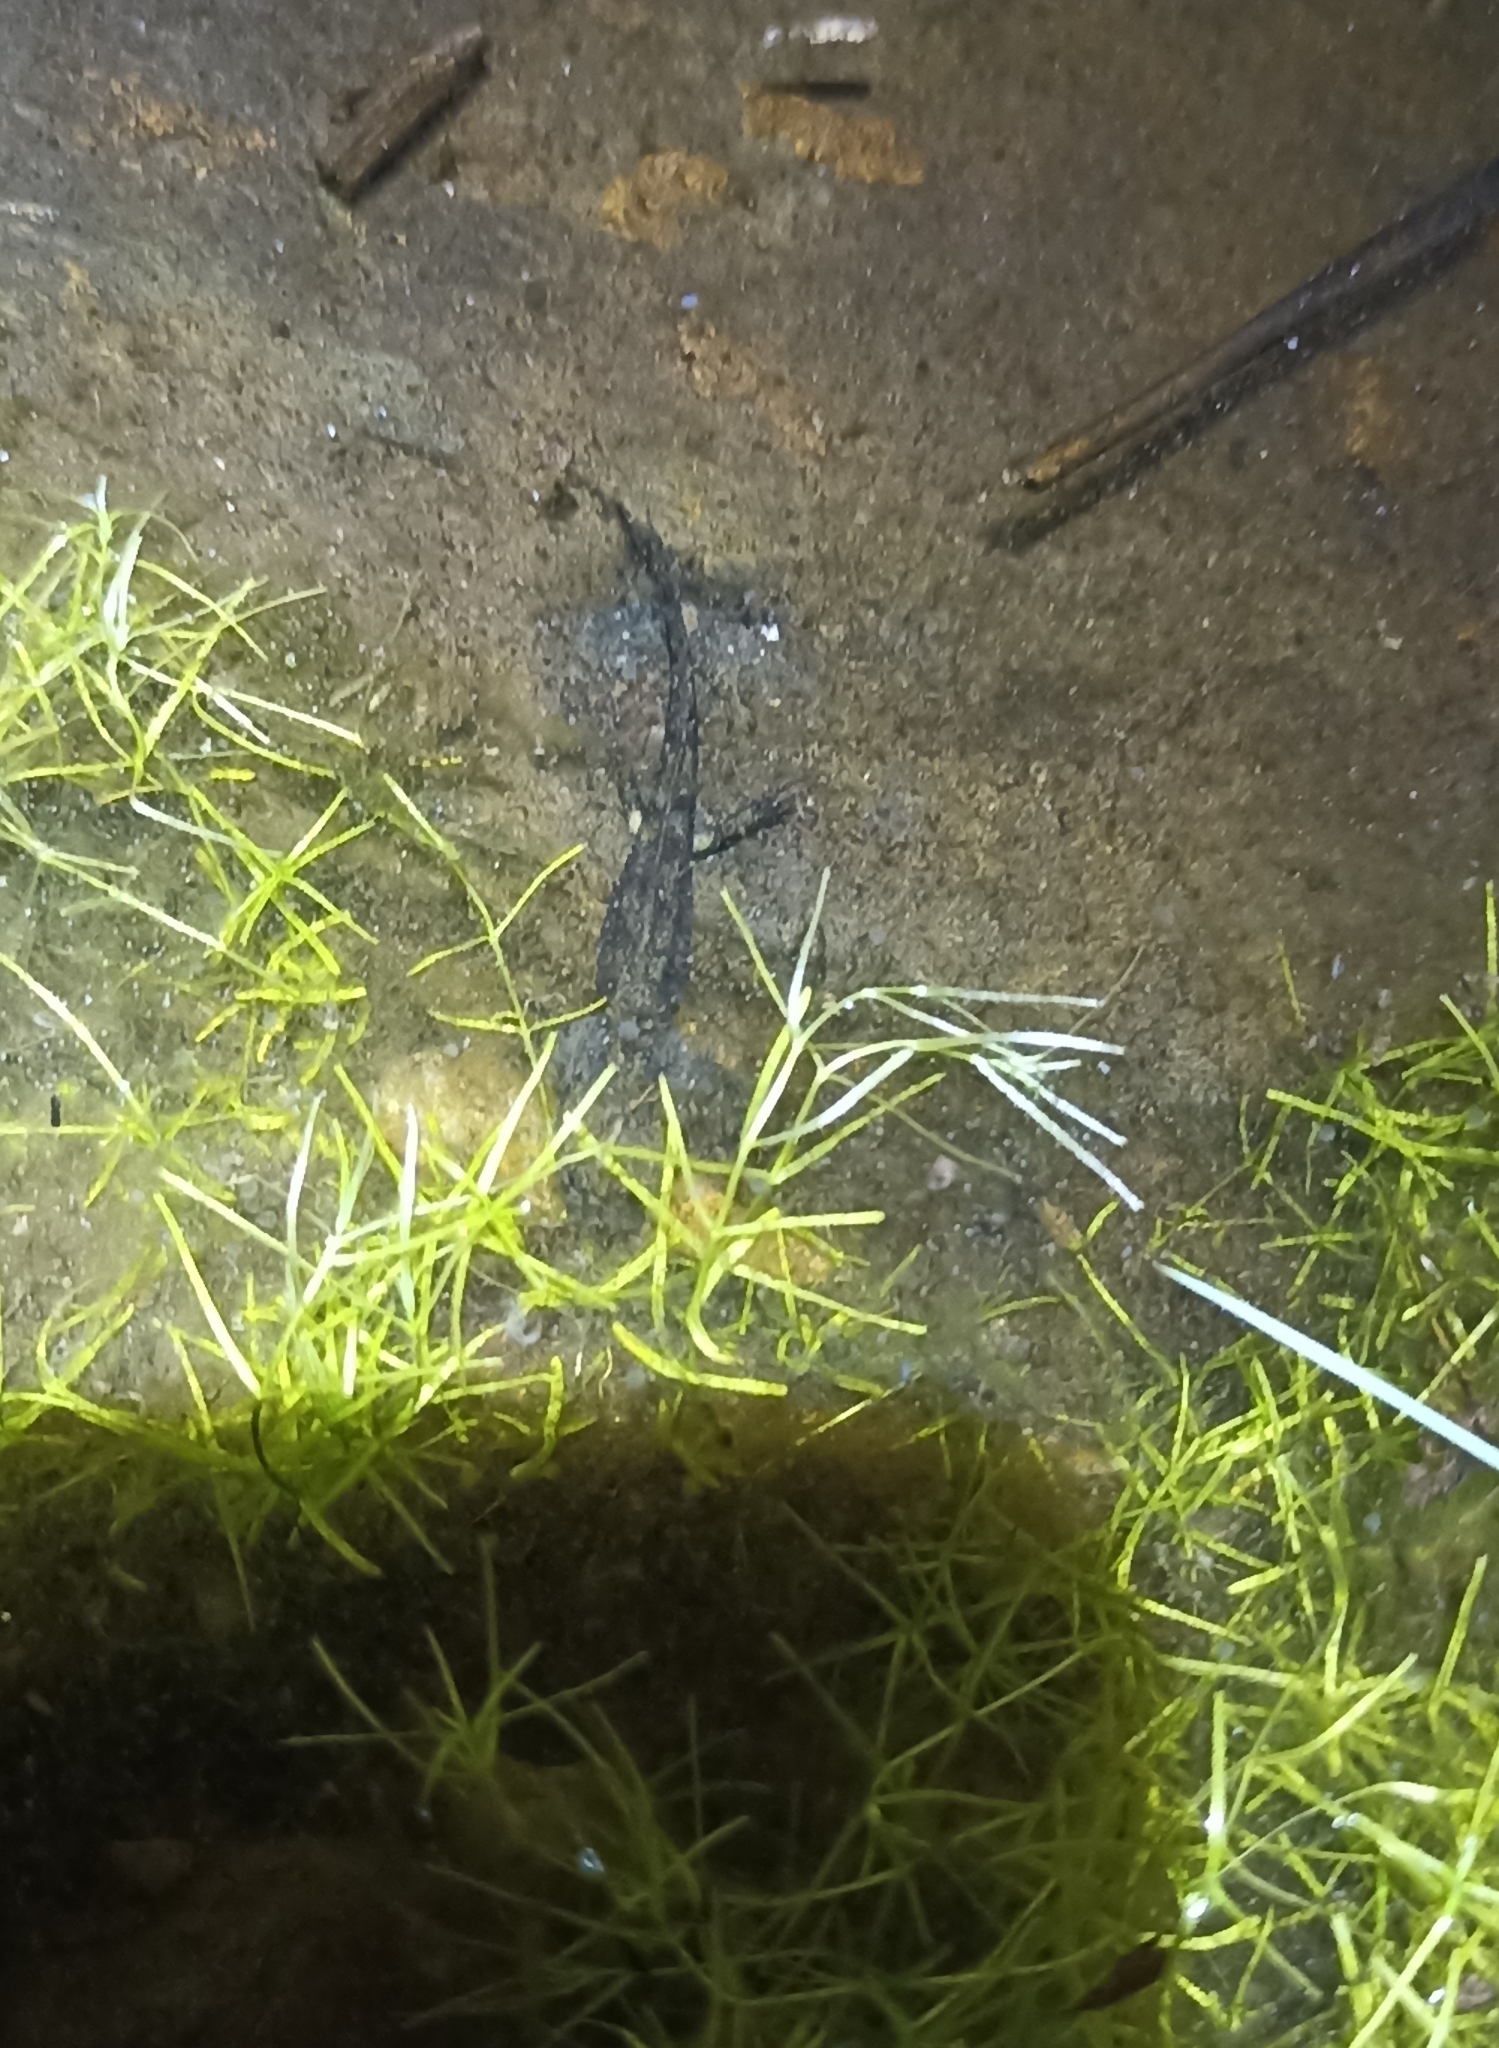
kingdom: Animalia
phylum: Chordata
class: Amphibia
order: Caudata
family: Salamandridae
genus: Salamandra
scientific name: Salamandra salamandra
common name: Fire salamander
